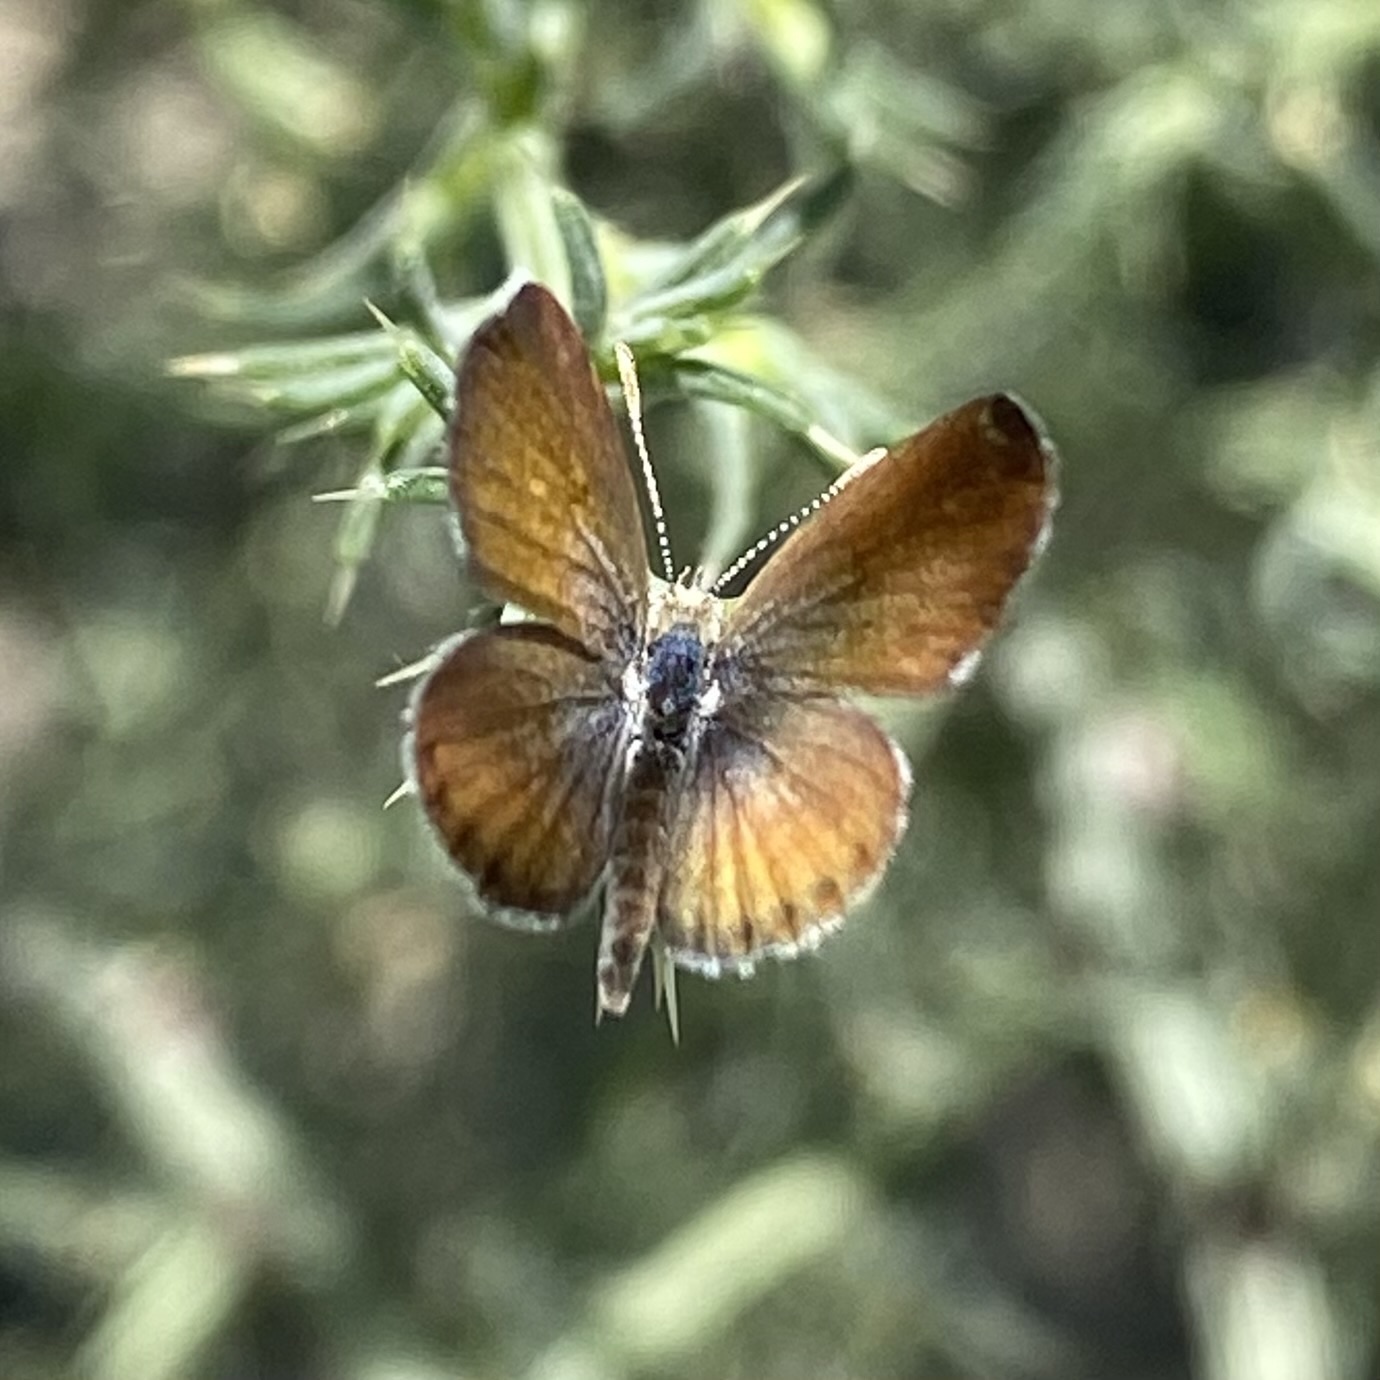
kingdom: Animalia
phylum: Arthropoda
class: Insecta
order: Lepidoptera
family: Lycaenidae
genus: Brephidium
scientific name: Brephidium exilis
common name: Pygmy blue
